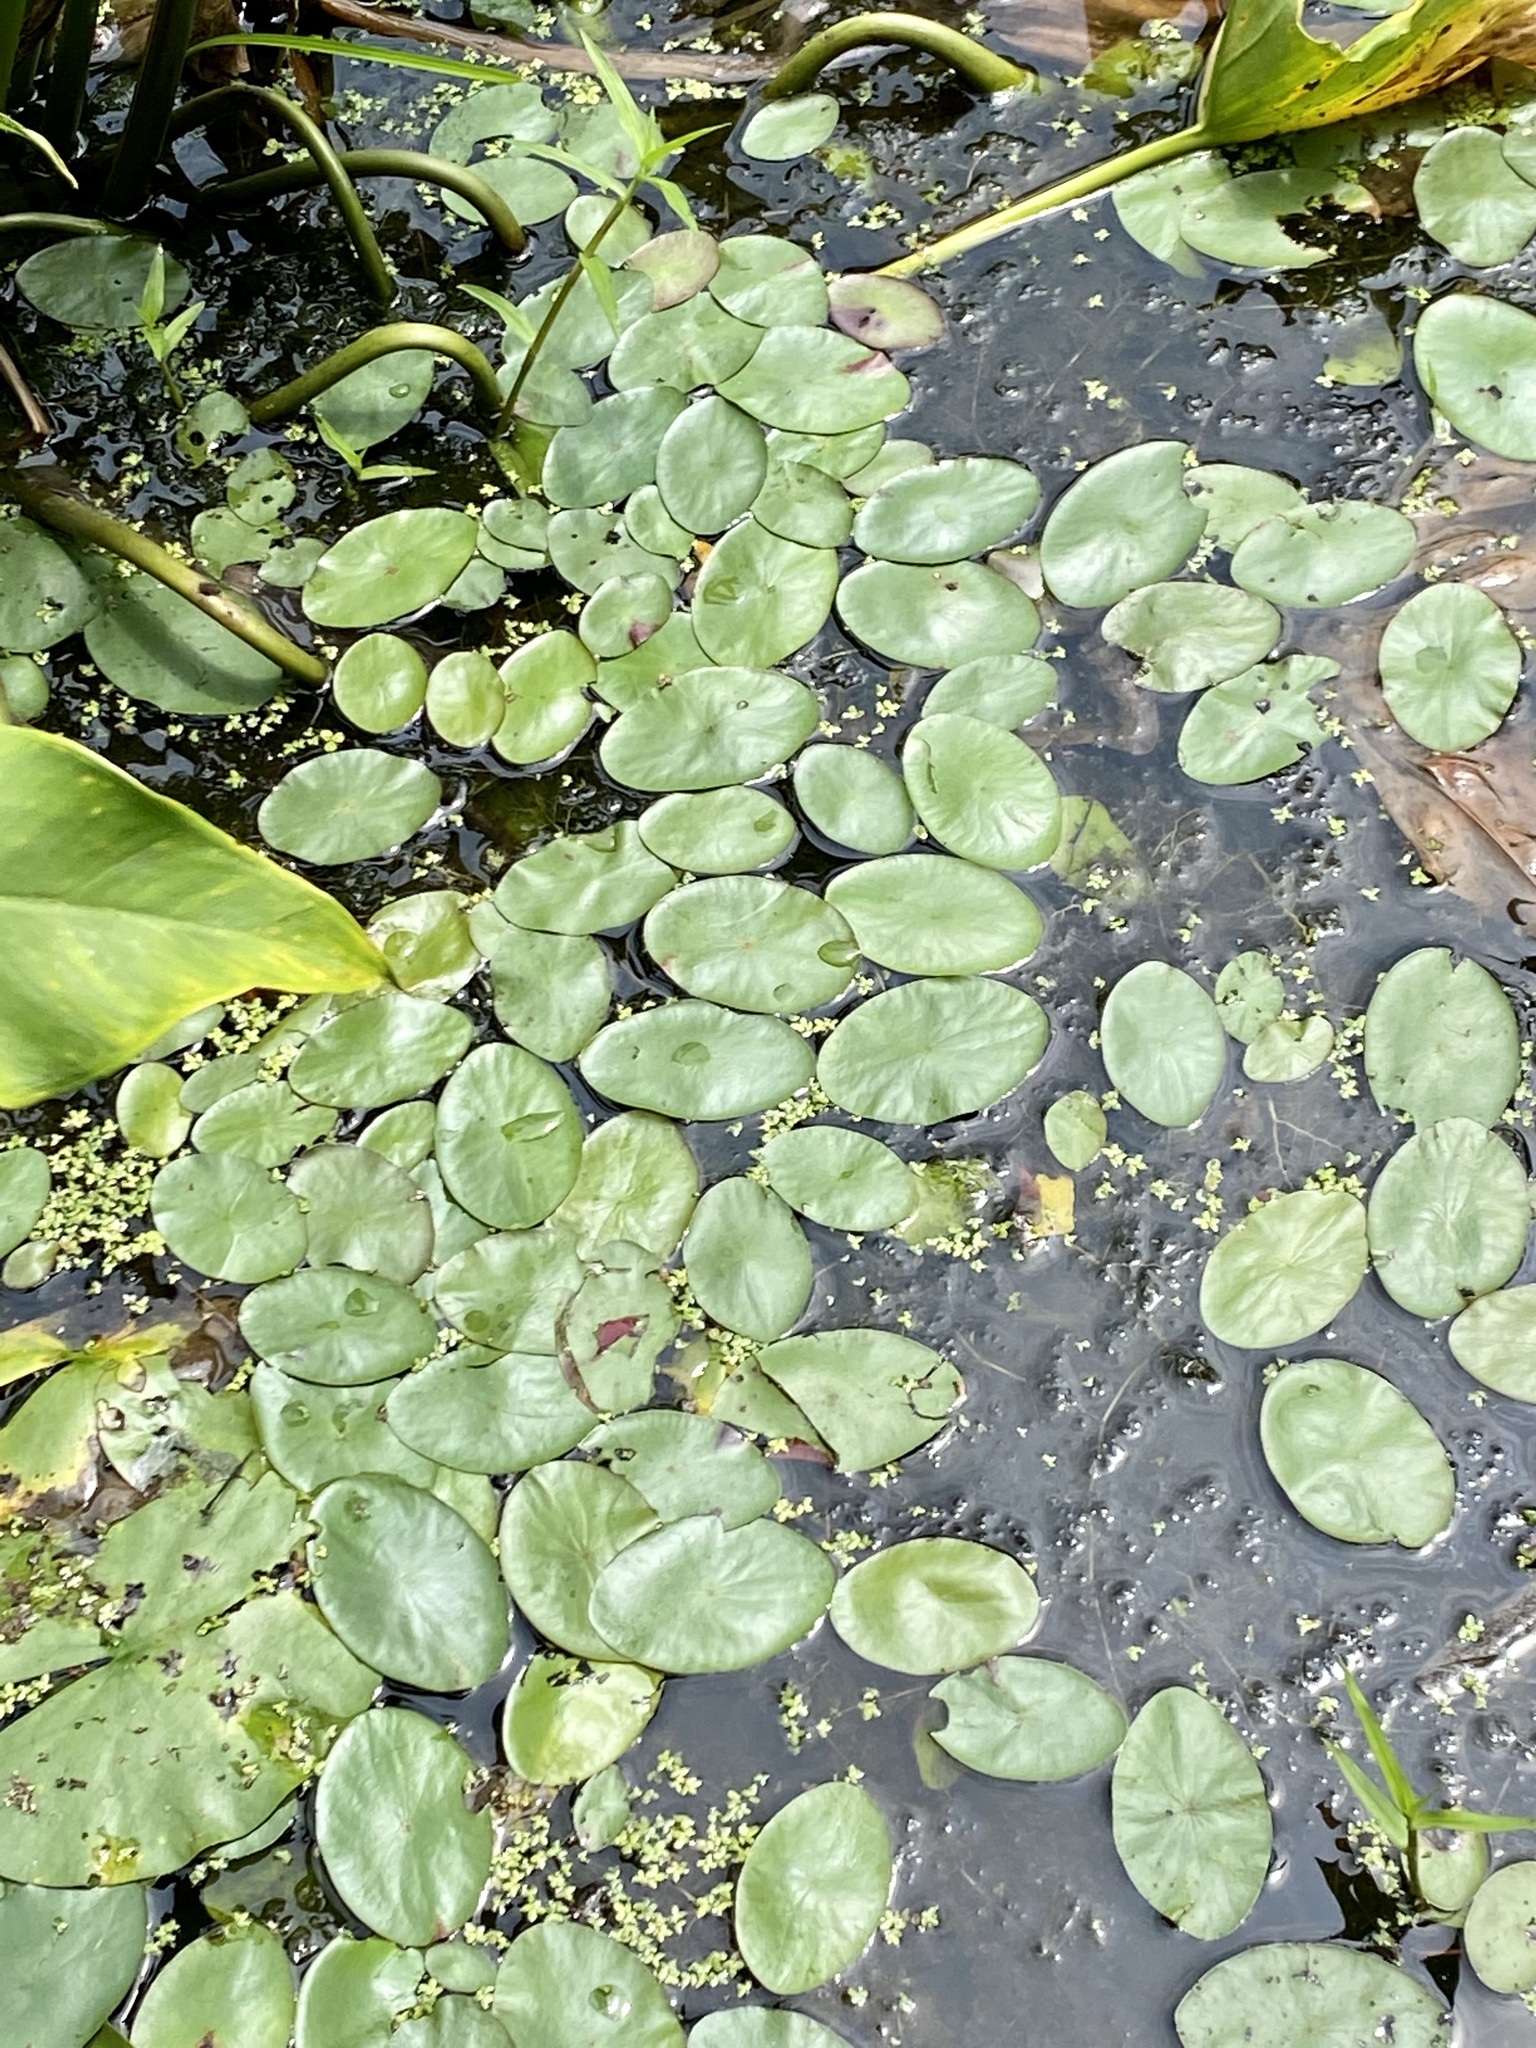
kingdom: Plantae
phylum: Tracheophyta
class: Magnoliopsida
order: Nymphaeales
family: Cabombaceae
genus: Brasenia
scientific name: Brasenia schreberi
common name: Water-shield
